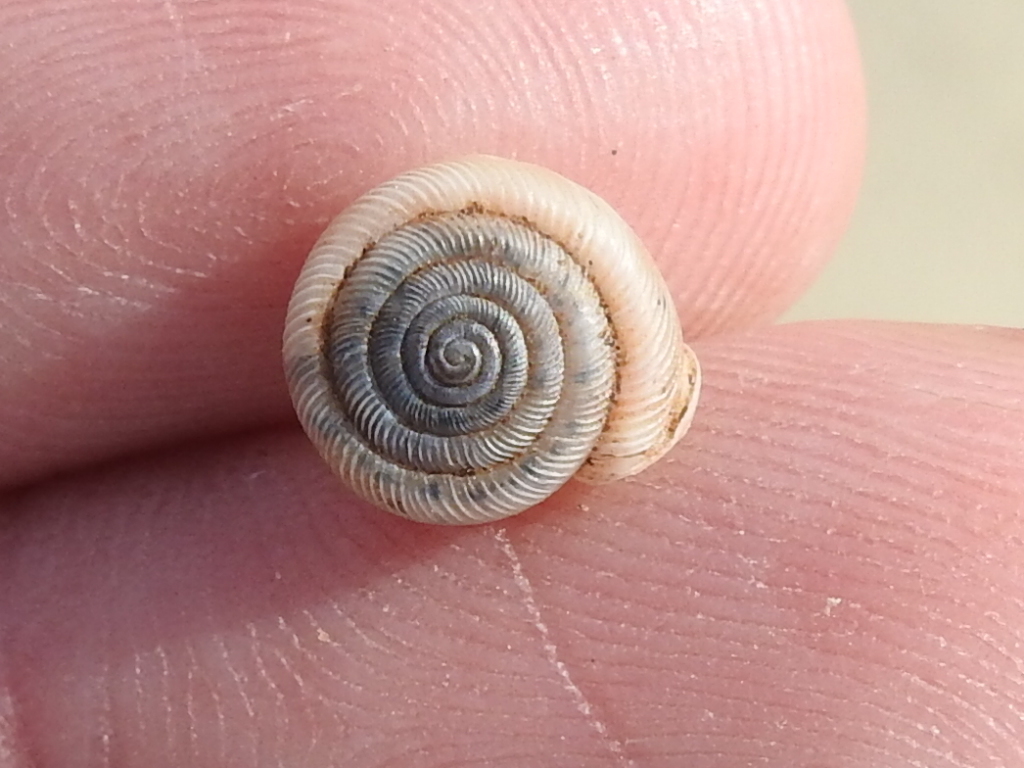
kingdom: Animalia
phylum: Mollusca
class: Gastropoda
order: Stylommatophora
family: Polygyridae
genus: Polygyra
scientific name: Polygyra cereolus
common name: Southern flatcone snail
